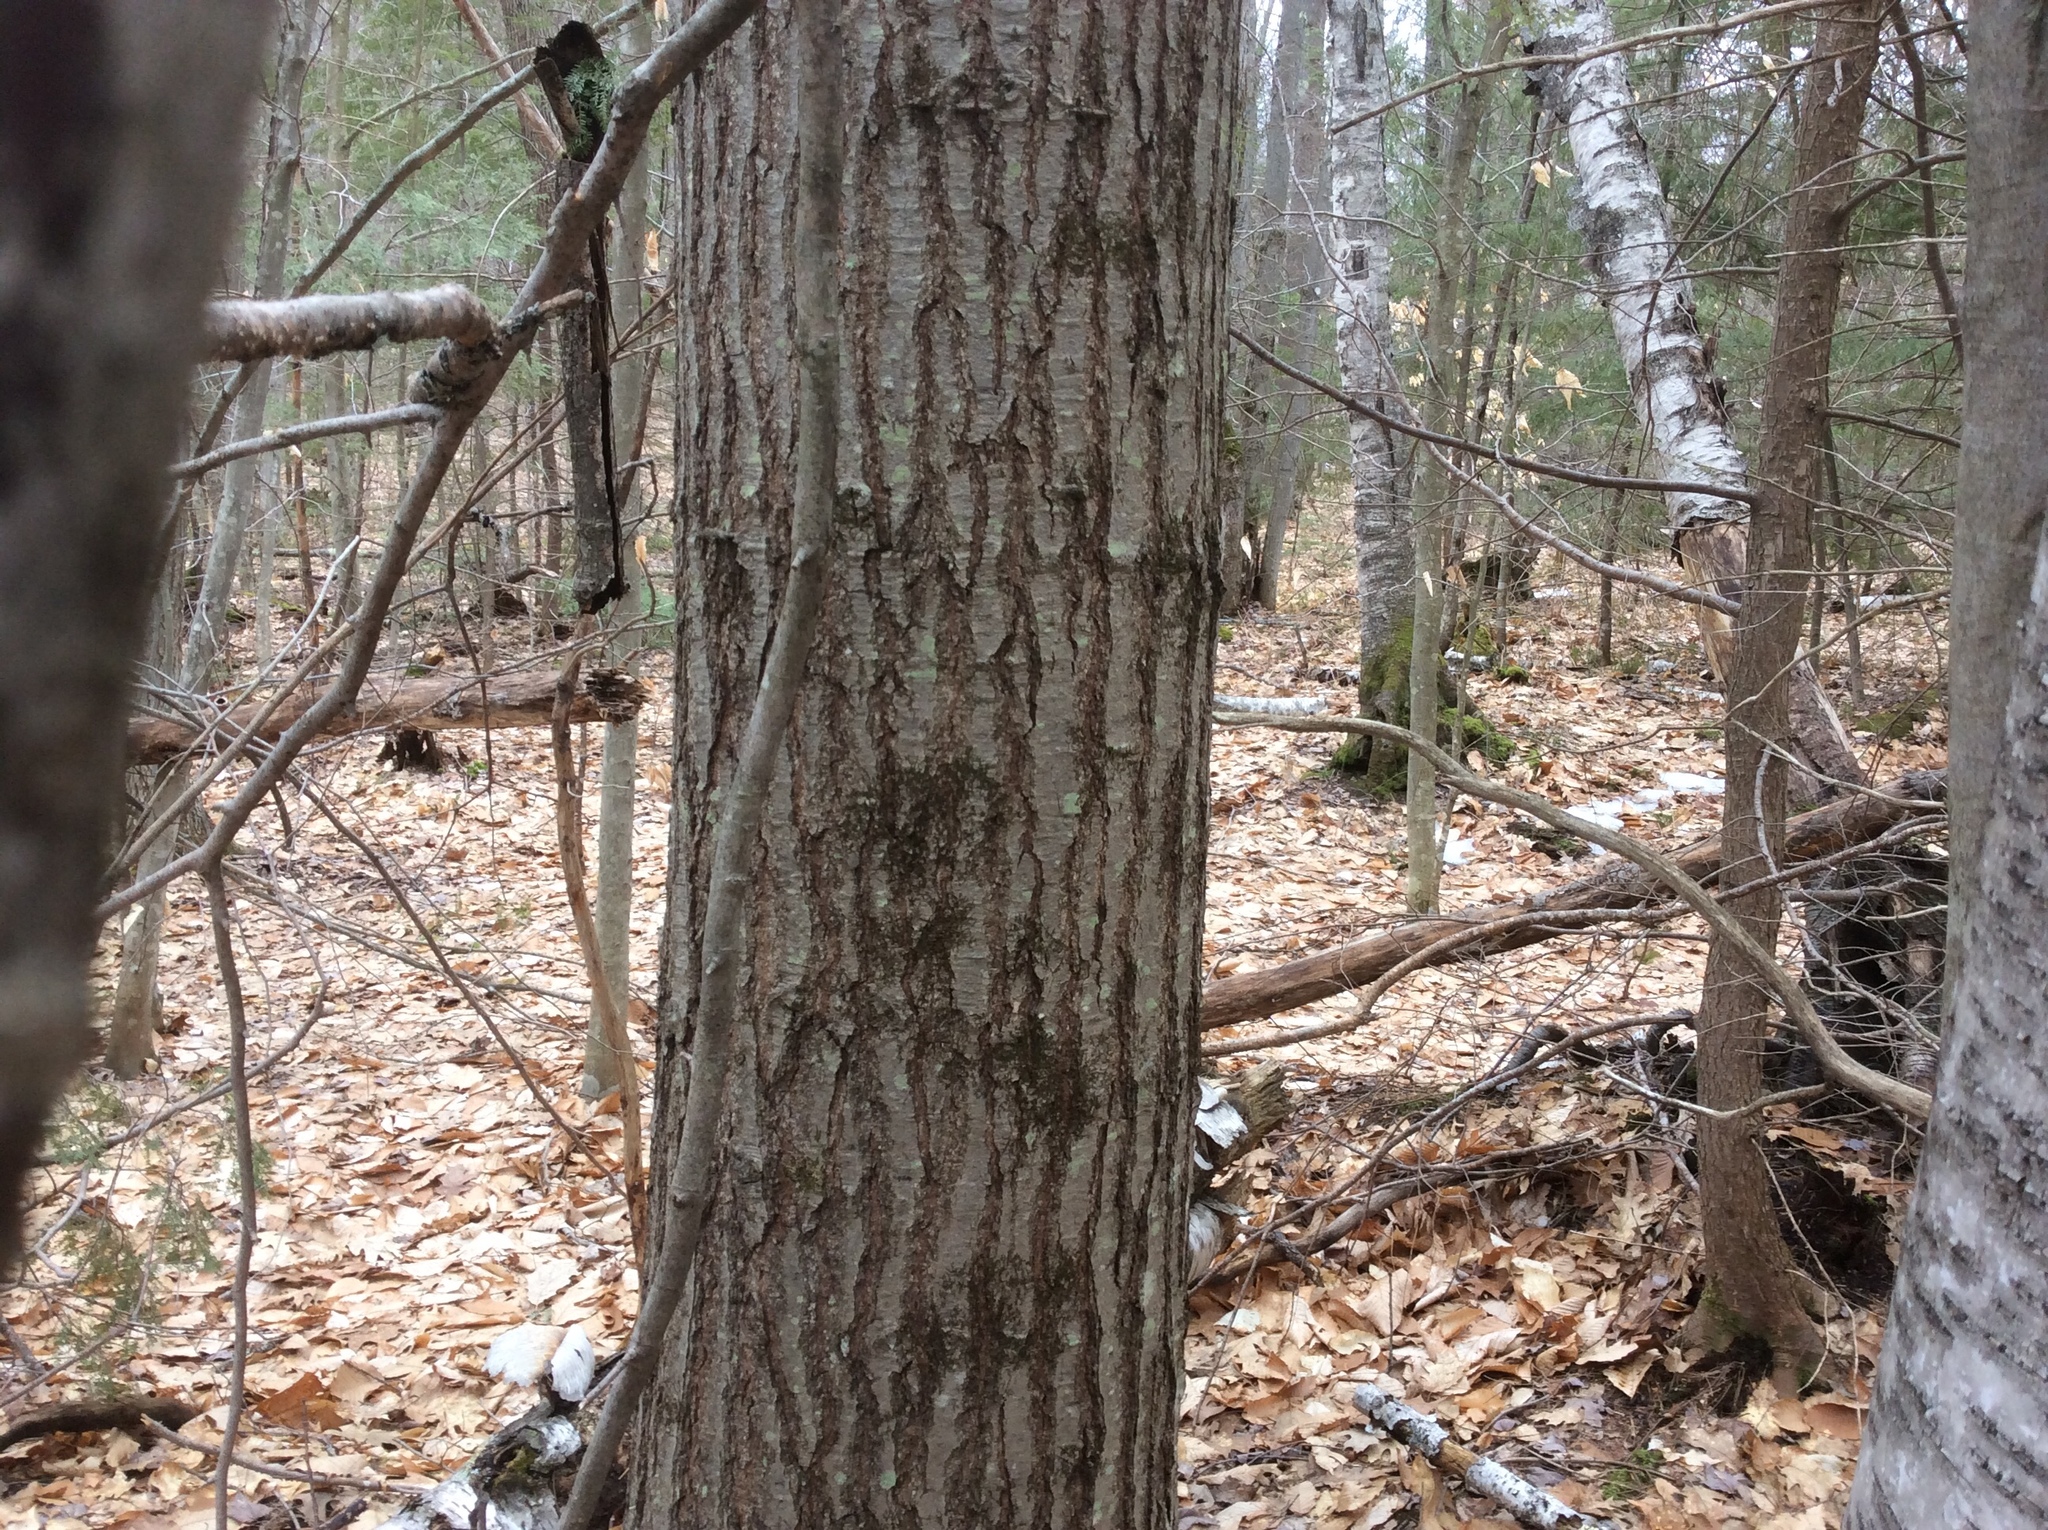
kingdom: Plantae
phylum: Tracheophyta
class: Magnoliopsida
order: Fagales
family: Fagaceae
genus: Quercus
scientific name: Quercus rubra
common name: Red oak
